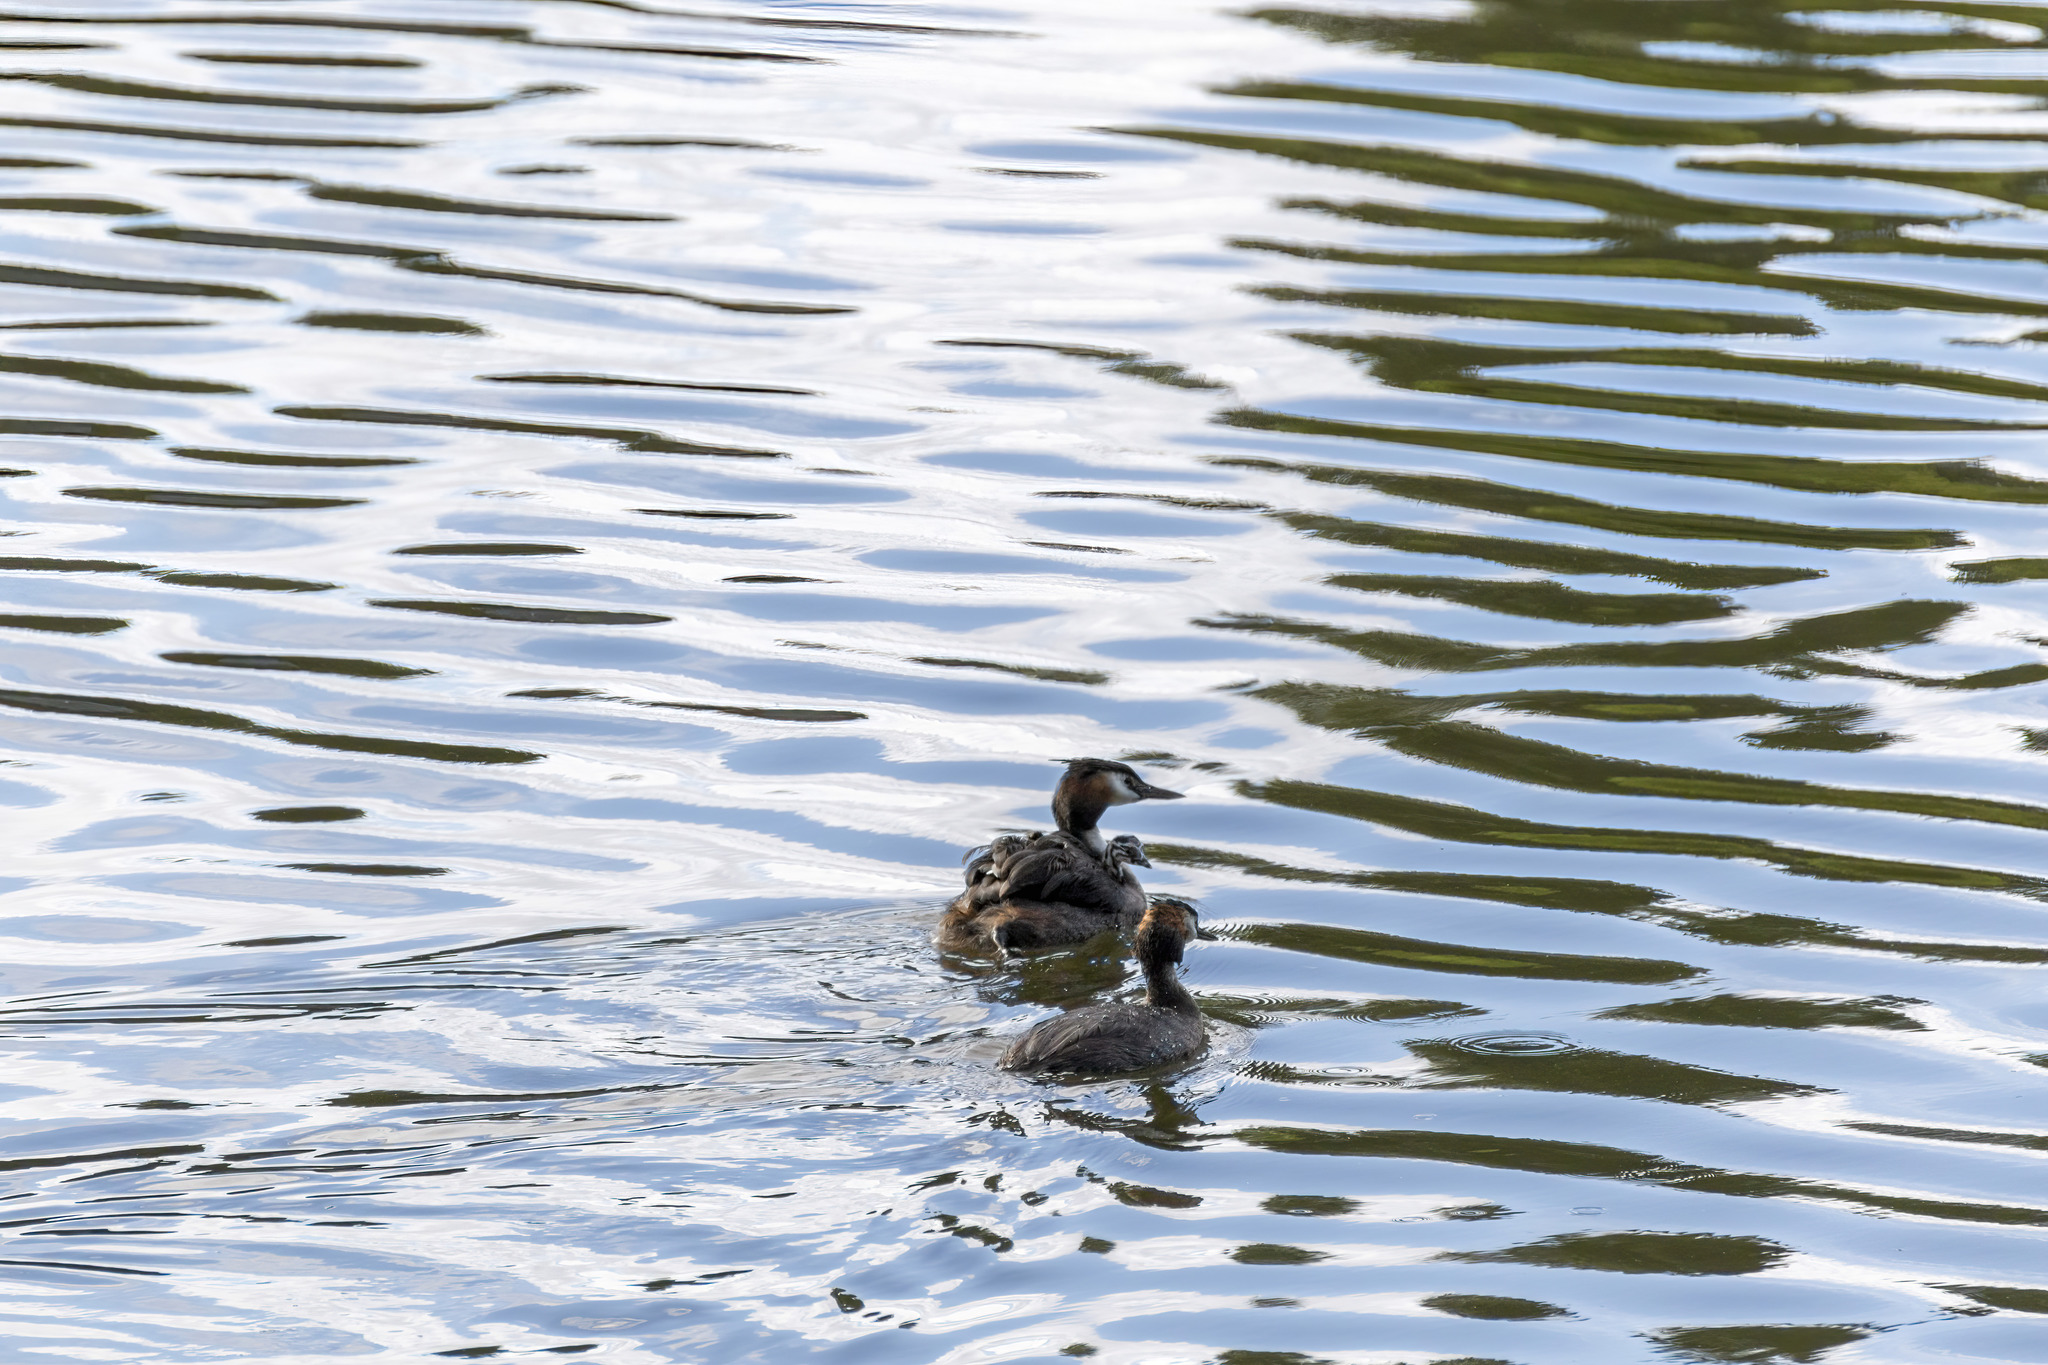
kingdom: Animalia
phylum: Chordata
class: Aves
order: Podicipediformes
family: Podicipedidae
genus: Podiceps
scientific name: Podiceps cristatus
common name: Great crested grebe
